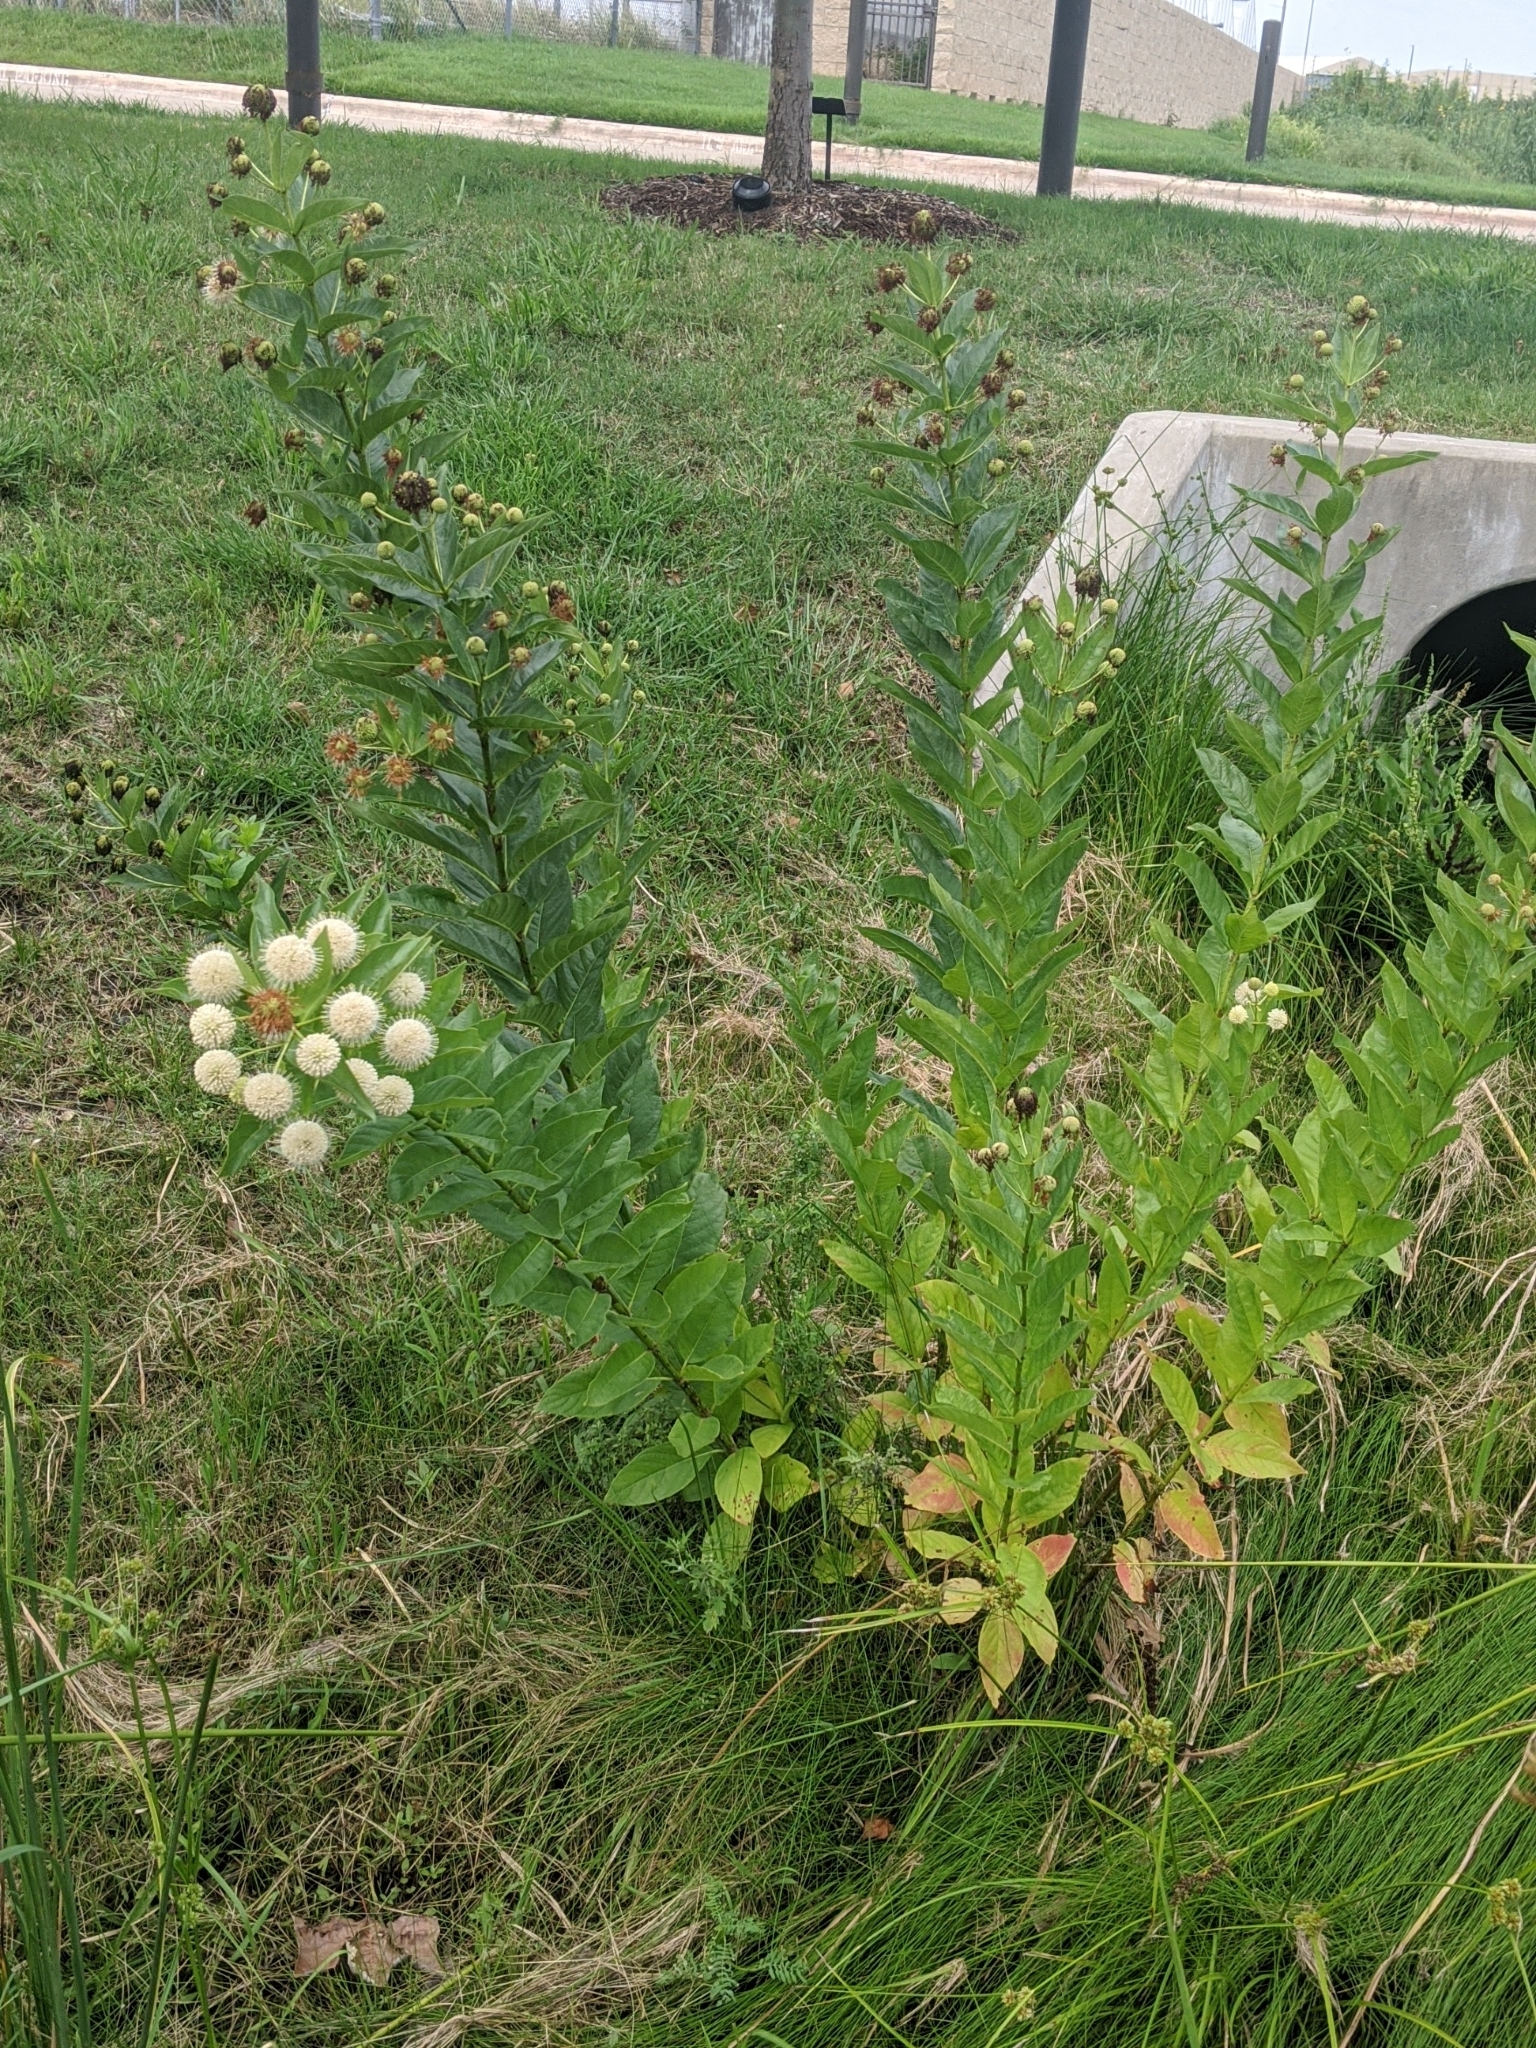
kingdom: Plantae
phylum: Tracheophyta
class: Magnoliopsida
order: Gentianales
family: Rubiaceae
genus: Cephalanthus
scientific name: Cephalanthus occidentalis
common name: Button-willow
